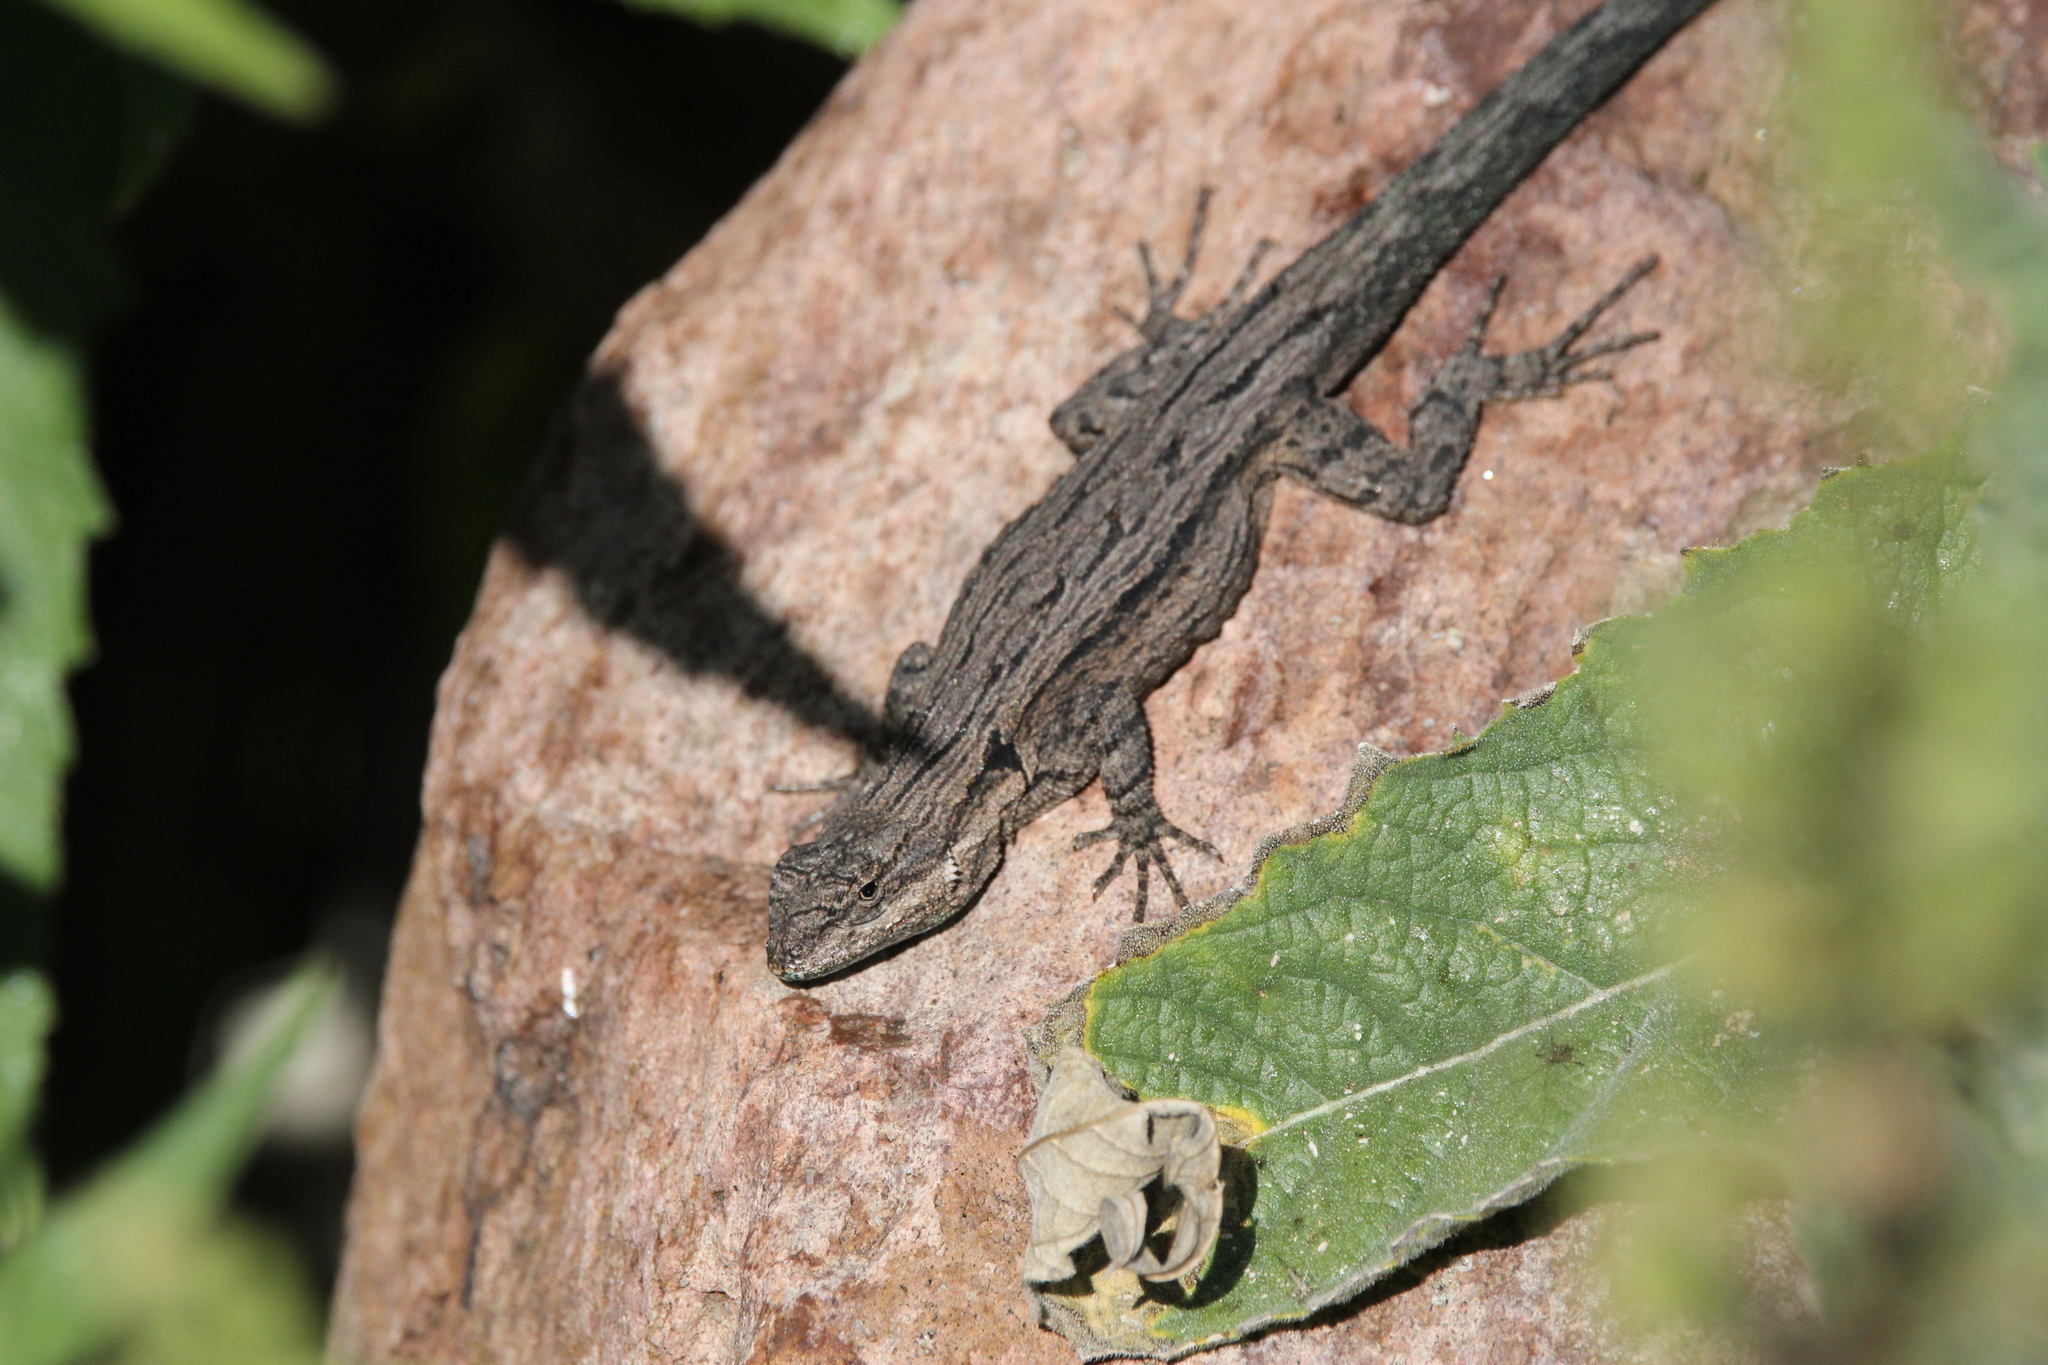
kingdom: Animalia
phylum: Chordata
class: Squamata
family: Phrynosomatidae
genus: Urosaurus
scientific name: Urosaurus ornatus
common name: Ornate tree lizard
